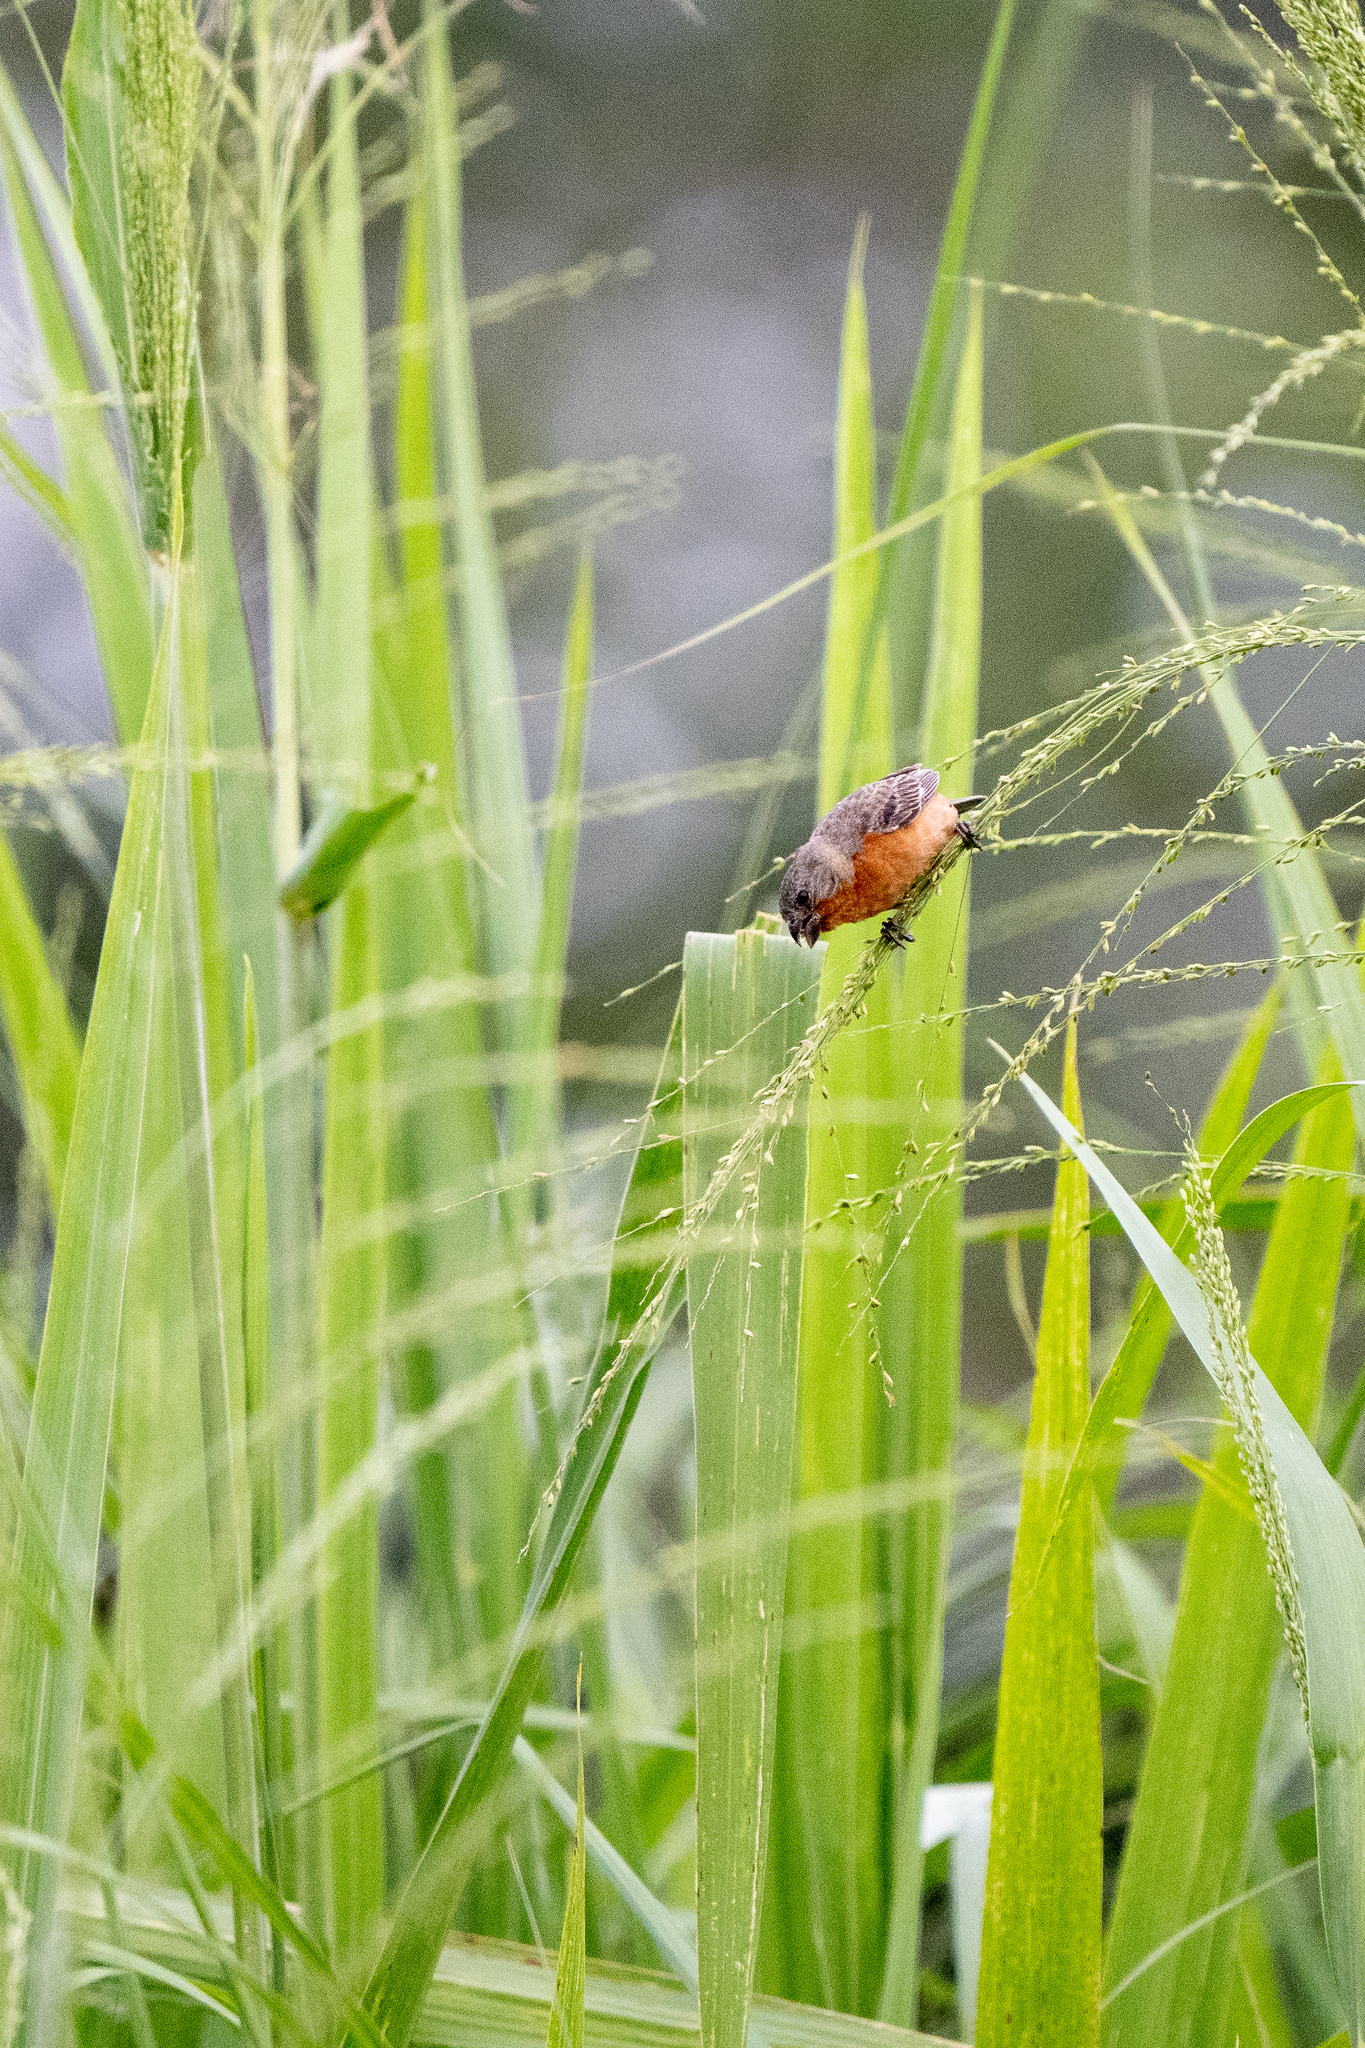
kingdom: Animalia
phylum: Chordata
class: Aves
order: Passeriformes
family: Thraupidae
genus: Sporophila
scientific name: Sporophila minuta
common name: Ruddy-breasted seedeater
